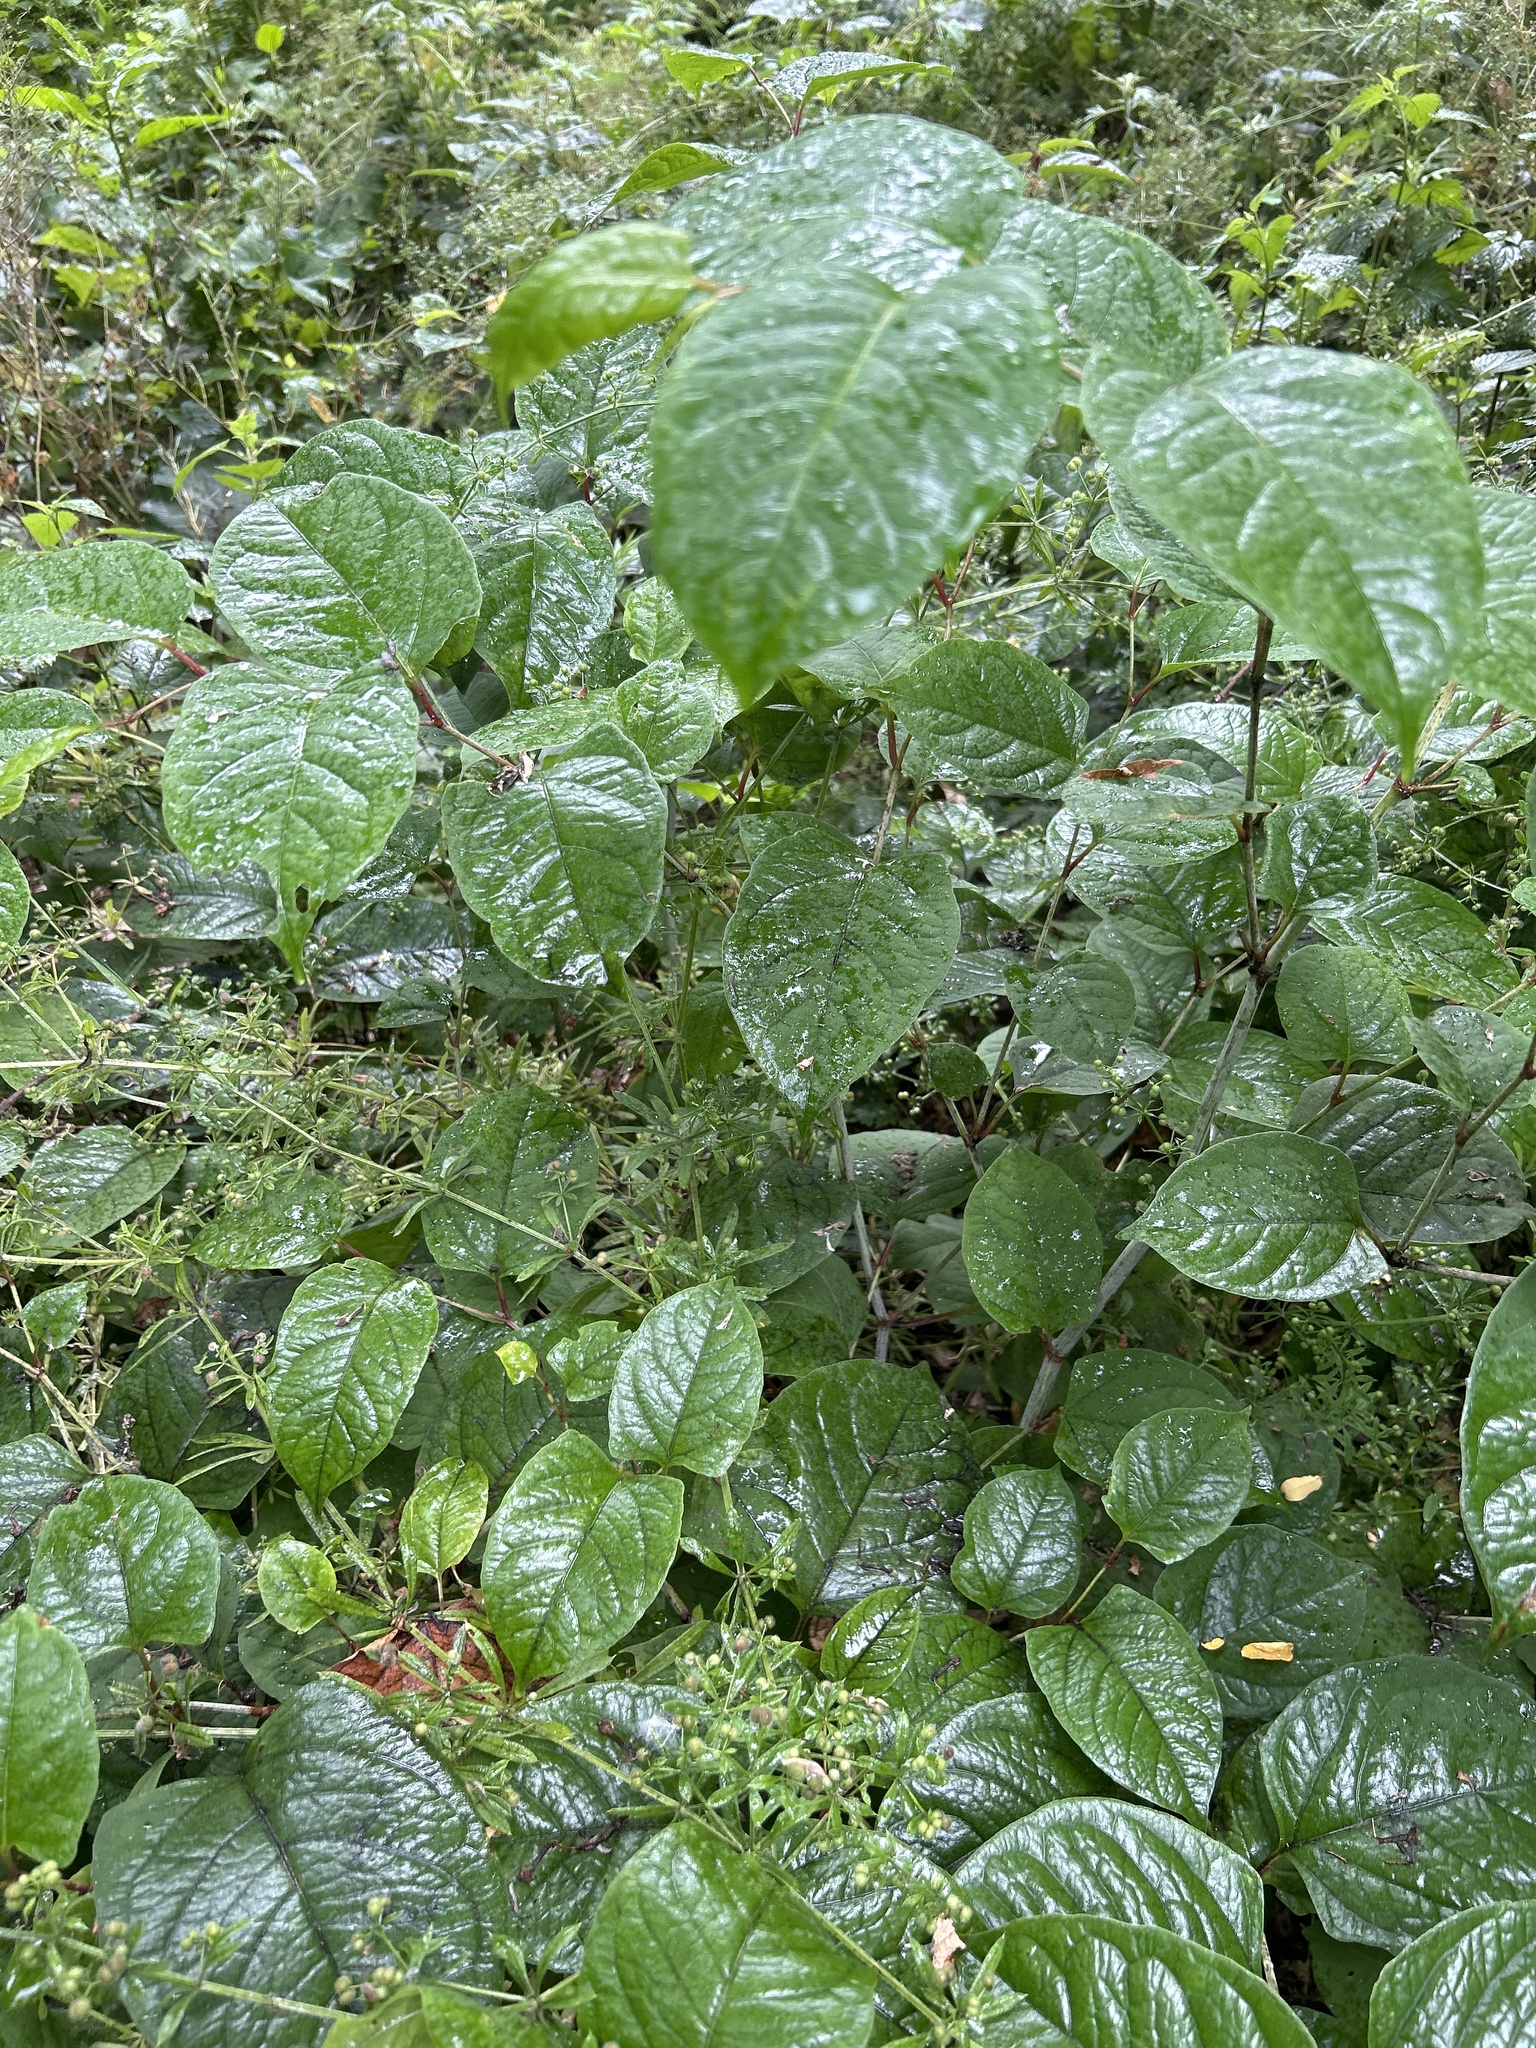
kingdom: Plantae
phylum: Tracheophyta
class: Magnoliopsida
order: Caryophyllales
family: Polygonaceae
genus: Reynoutria
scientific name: Reynoutria japonica
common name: Japanese knotweed
